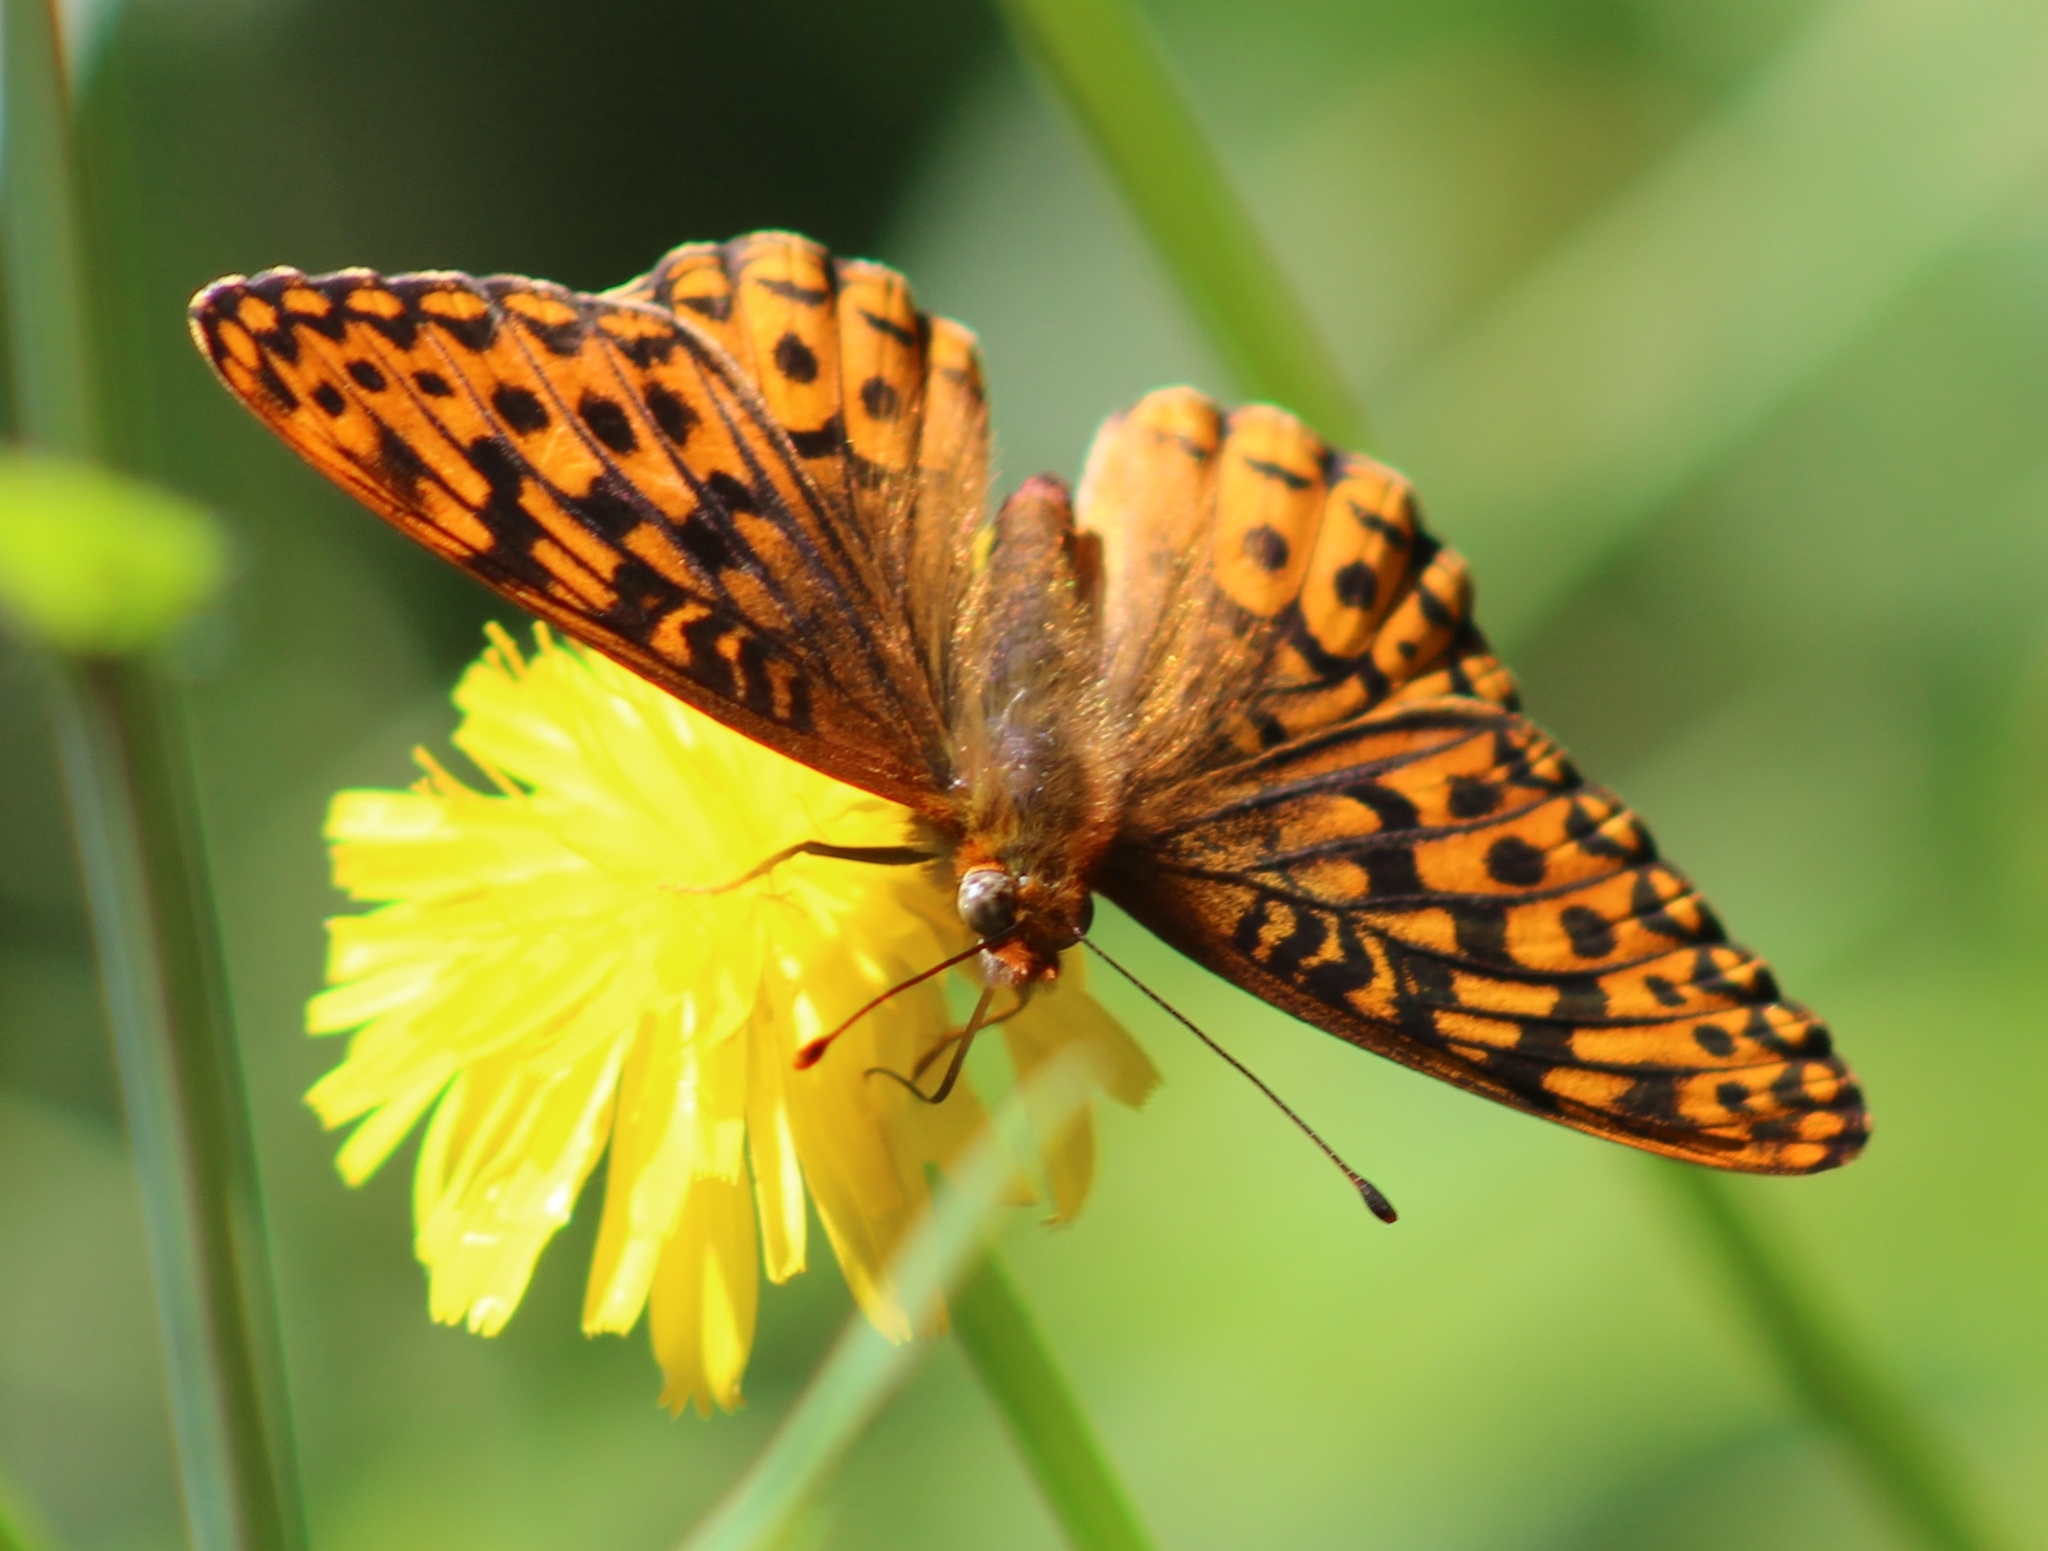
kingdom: Animalia
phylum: Arthropoda
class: Insecta
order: Lepidoptera
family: Nymphalidae
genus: Speyeria
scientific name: Speyeria hydaspe
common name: Hydaspe fritillary
